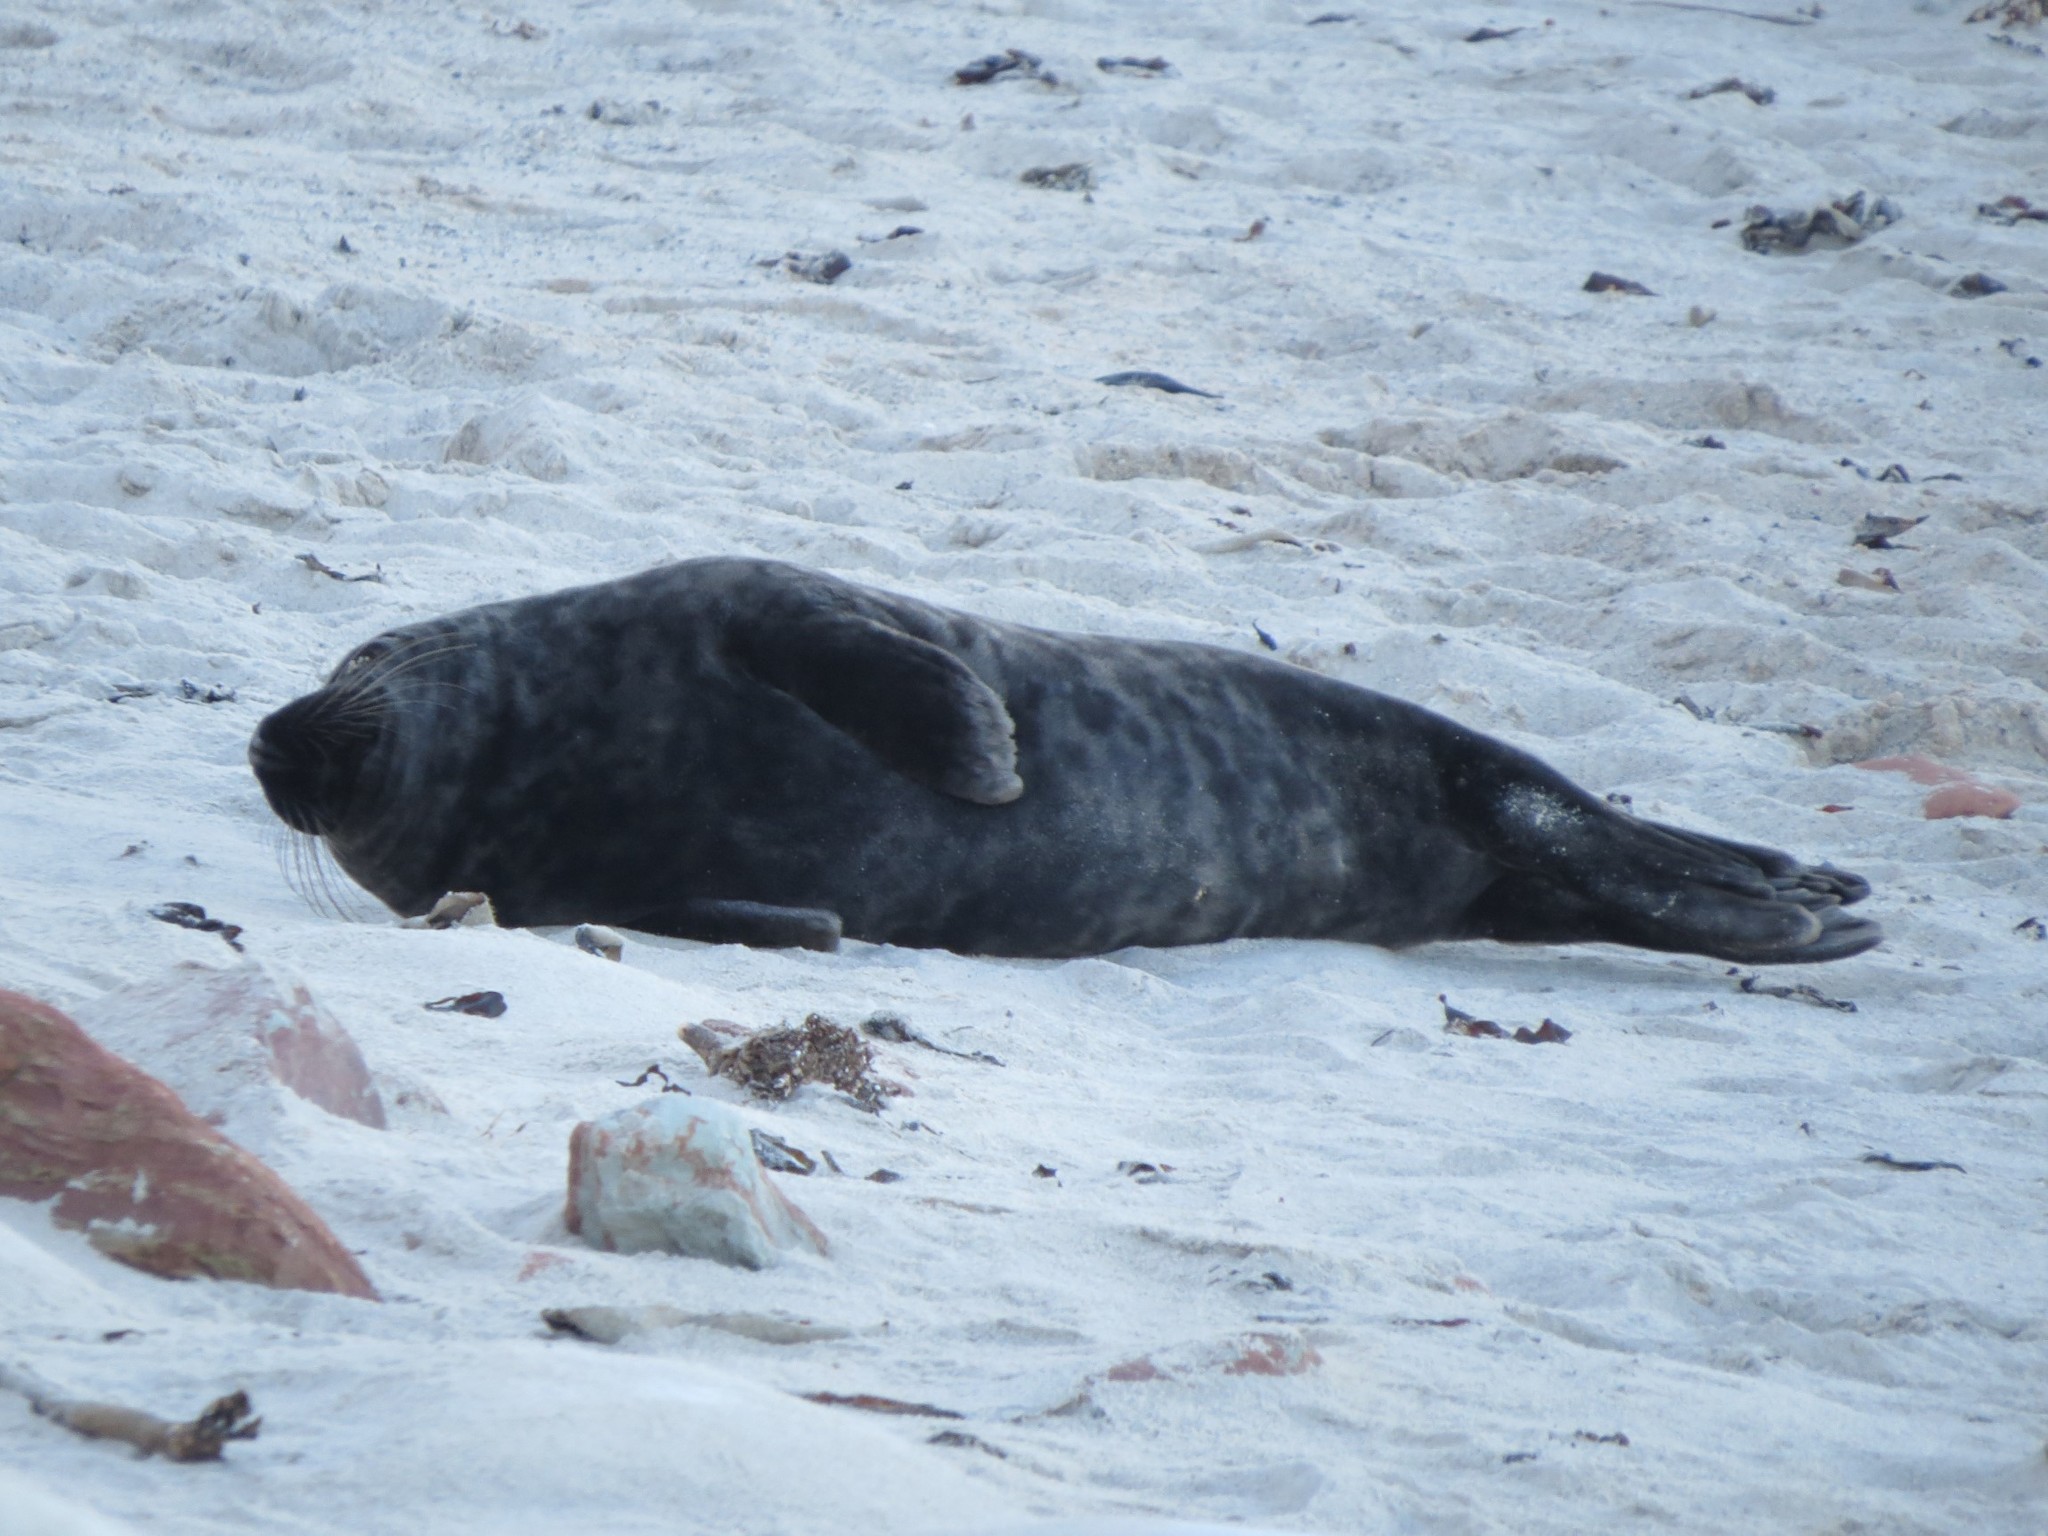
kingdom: Animalia
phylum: Chordata
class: Mammalia
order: Carnivora
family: Phocidae
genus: Halichoerus
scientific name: Halichoerus grypus
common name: Grey seal
